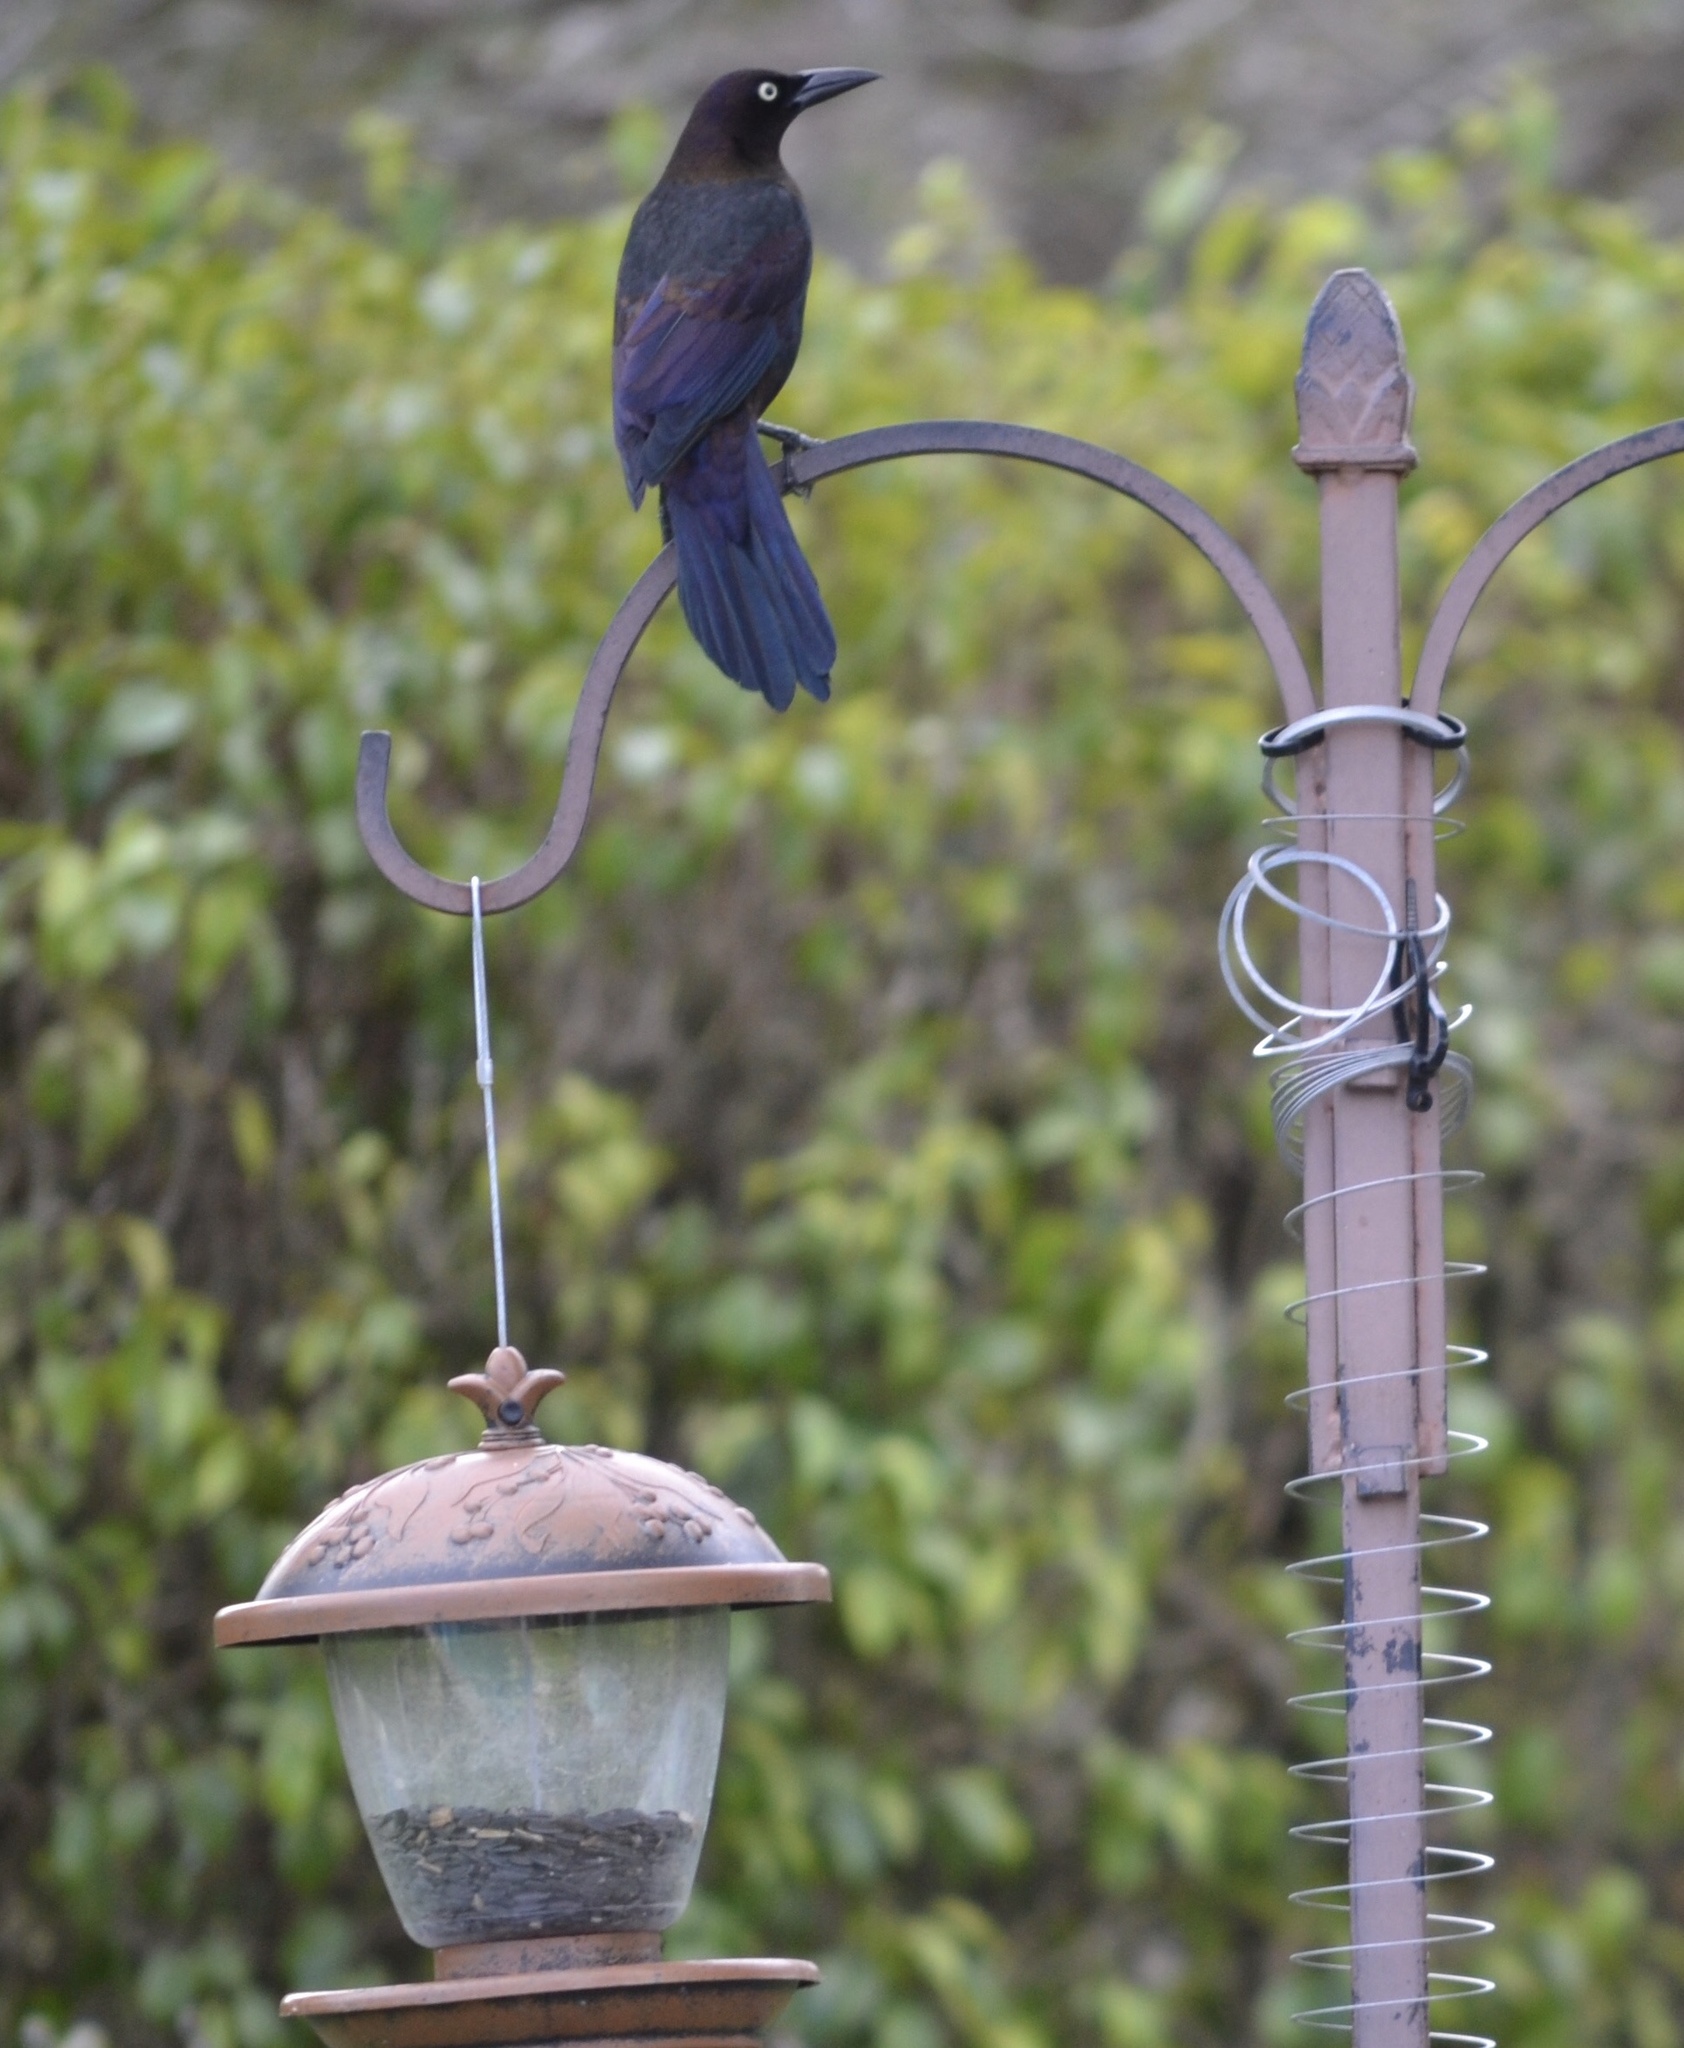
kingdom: Animalia
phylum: Chordata
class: Aves
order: Passeriformes
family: Icteridae
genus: Quiscalus
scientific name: Quiscalus quiscula
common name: Common grackle
